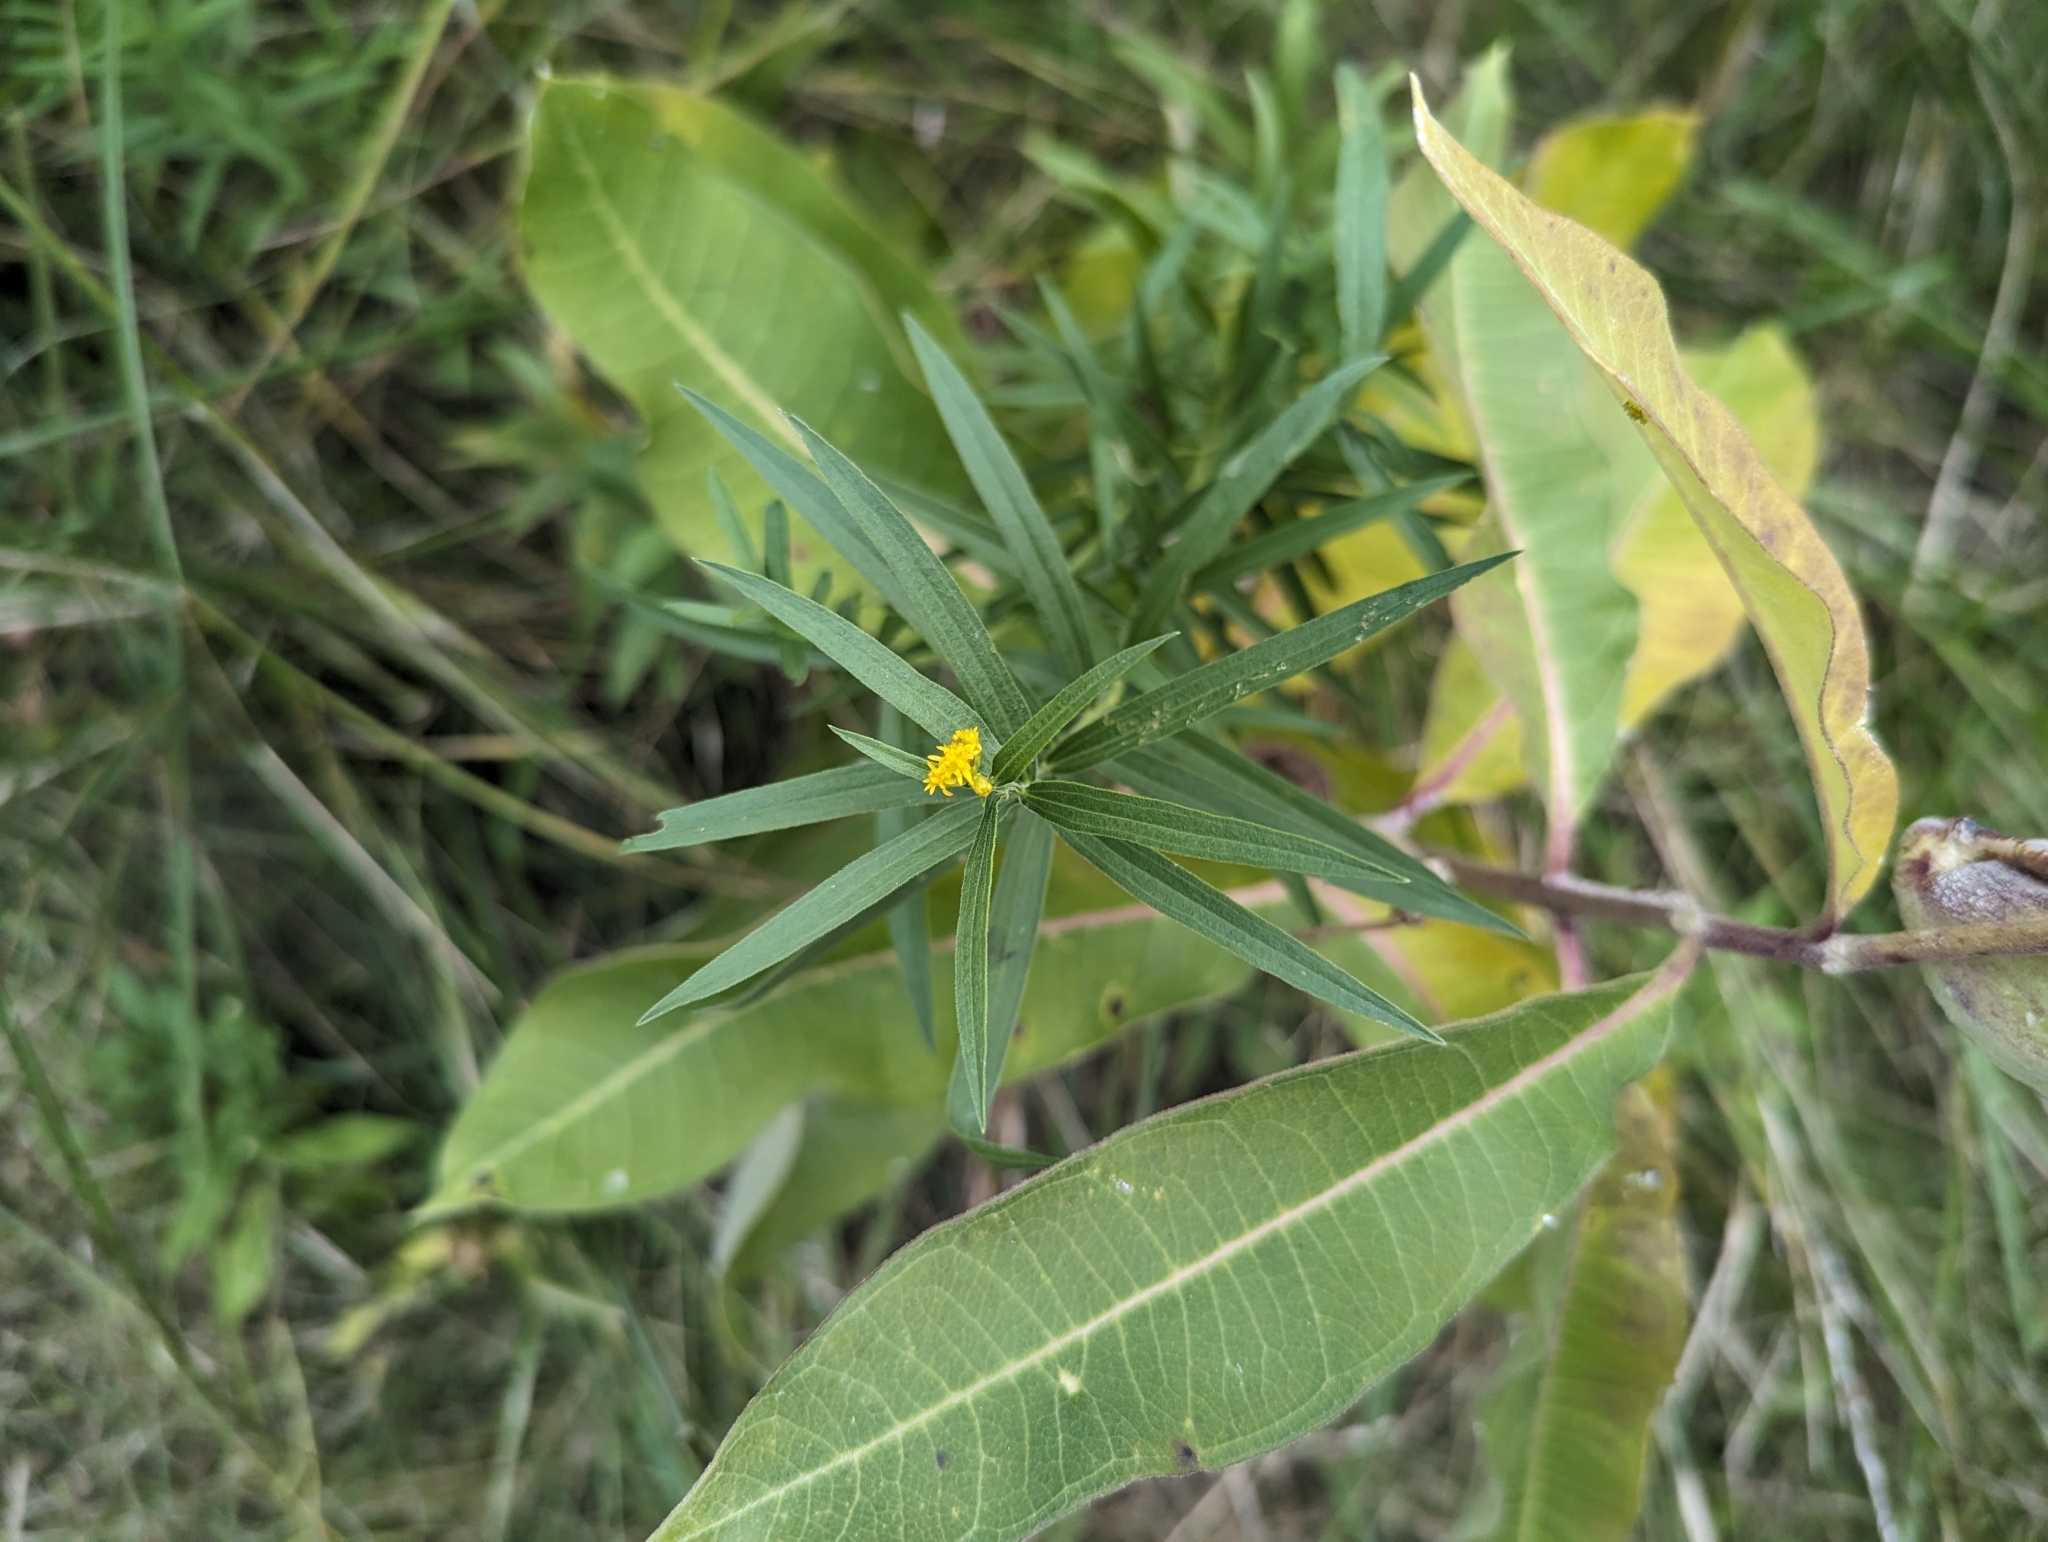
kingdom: Plantae
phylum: Tracheophyta
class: Magnoliopsida
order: Asterales
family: Asteraceae
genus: Euthamia
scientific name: Euthamia graminifolia
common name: Common goldentop
